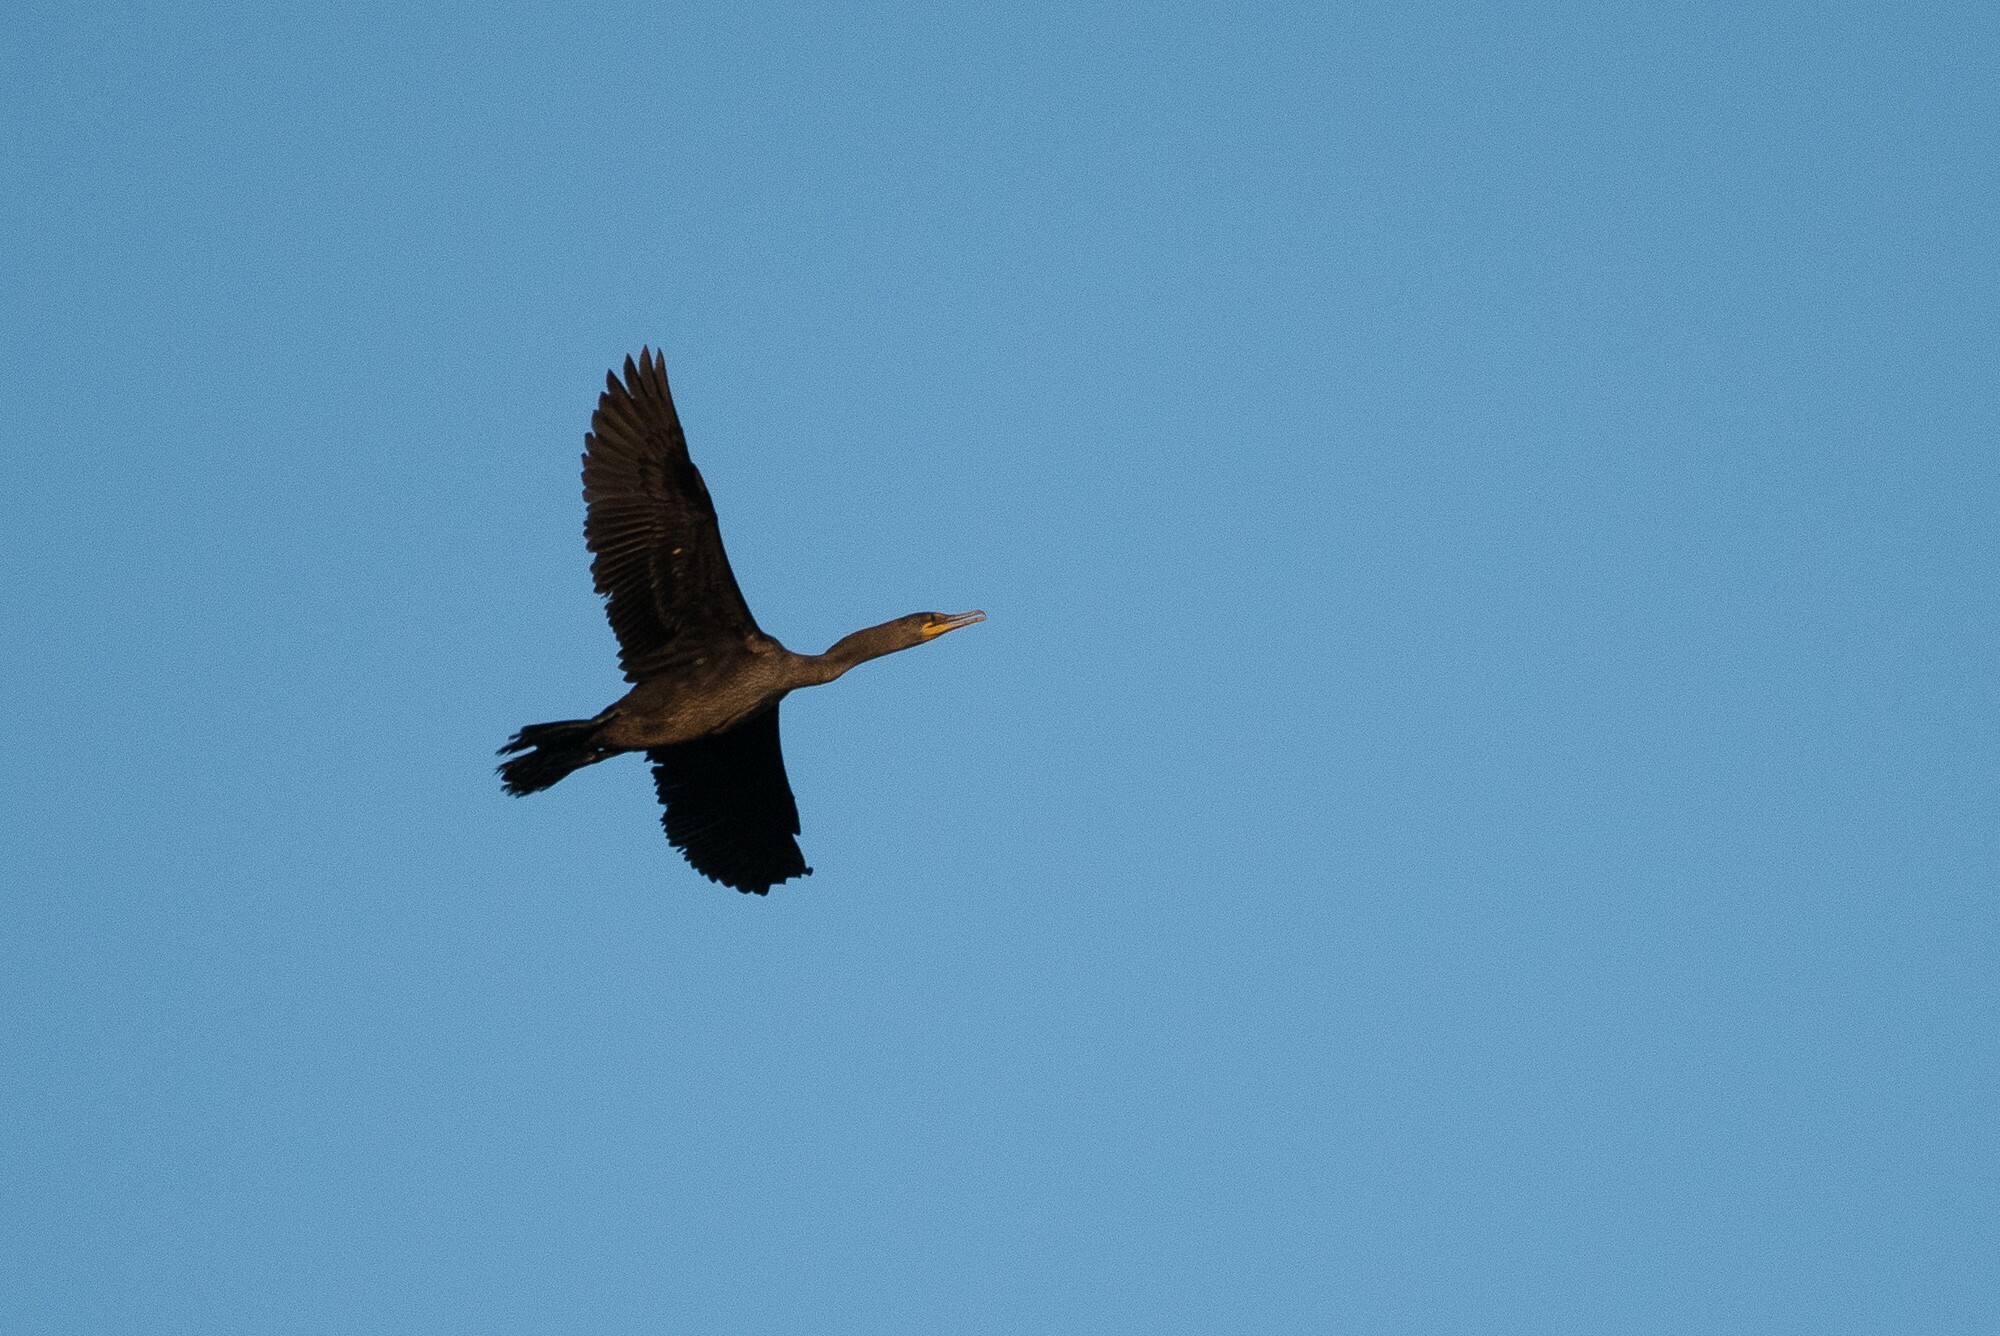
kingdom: Animalia
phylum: Chordata
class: Aves
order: Suliformes
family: Phalacrocoracidae
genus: Phalacrocorax
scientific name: Phalacrocorax auritus
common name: Double-crested cormorant
